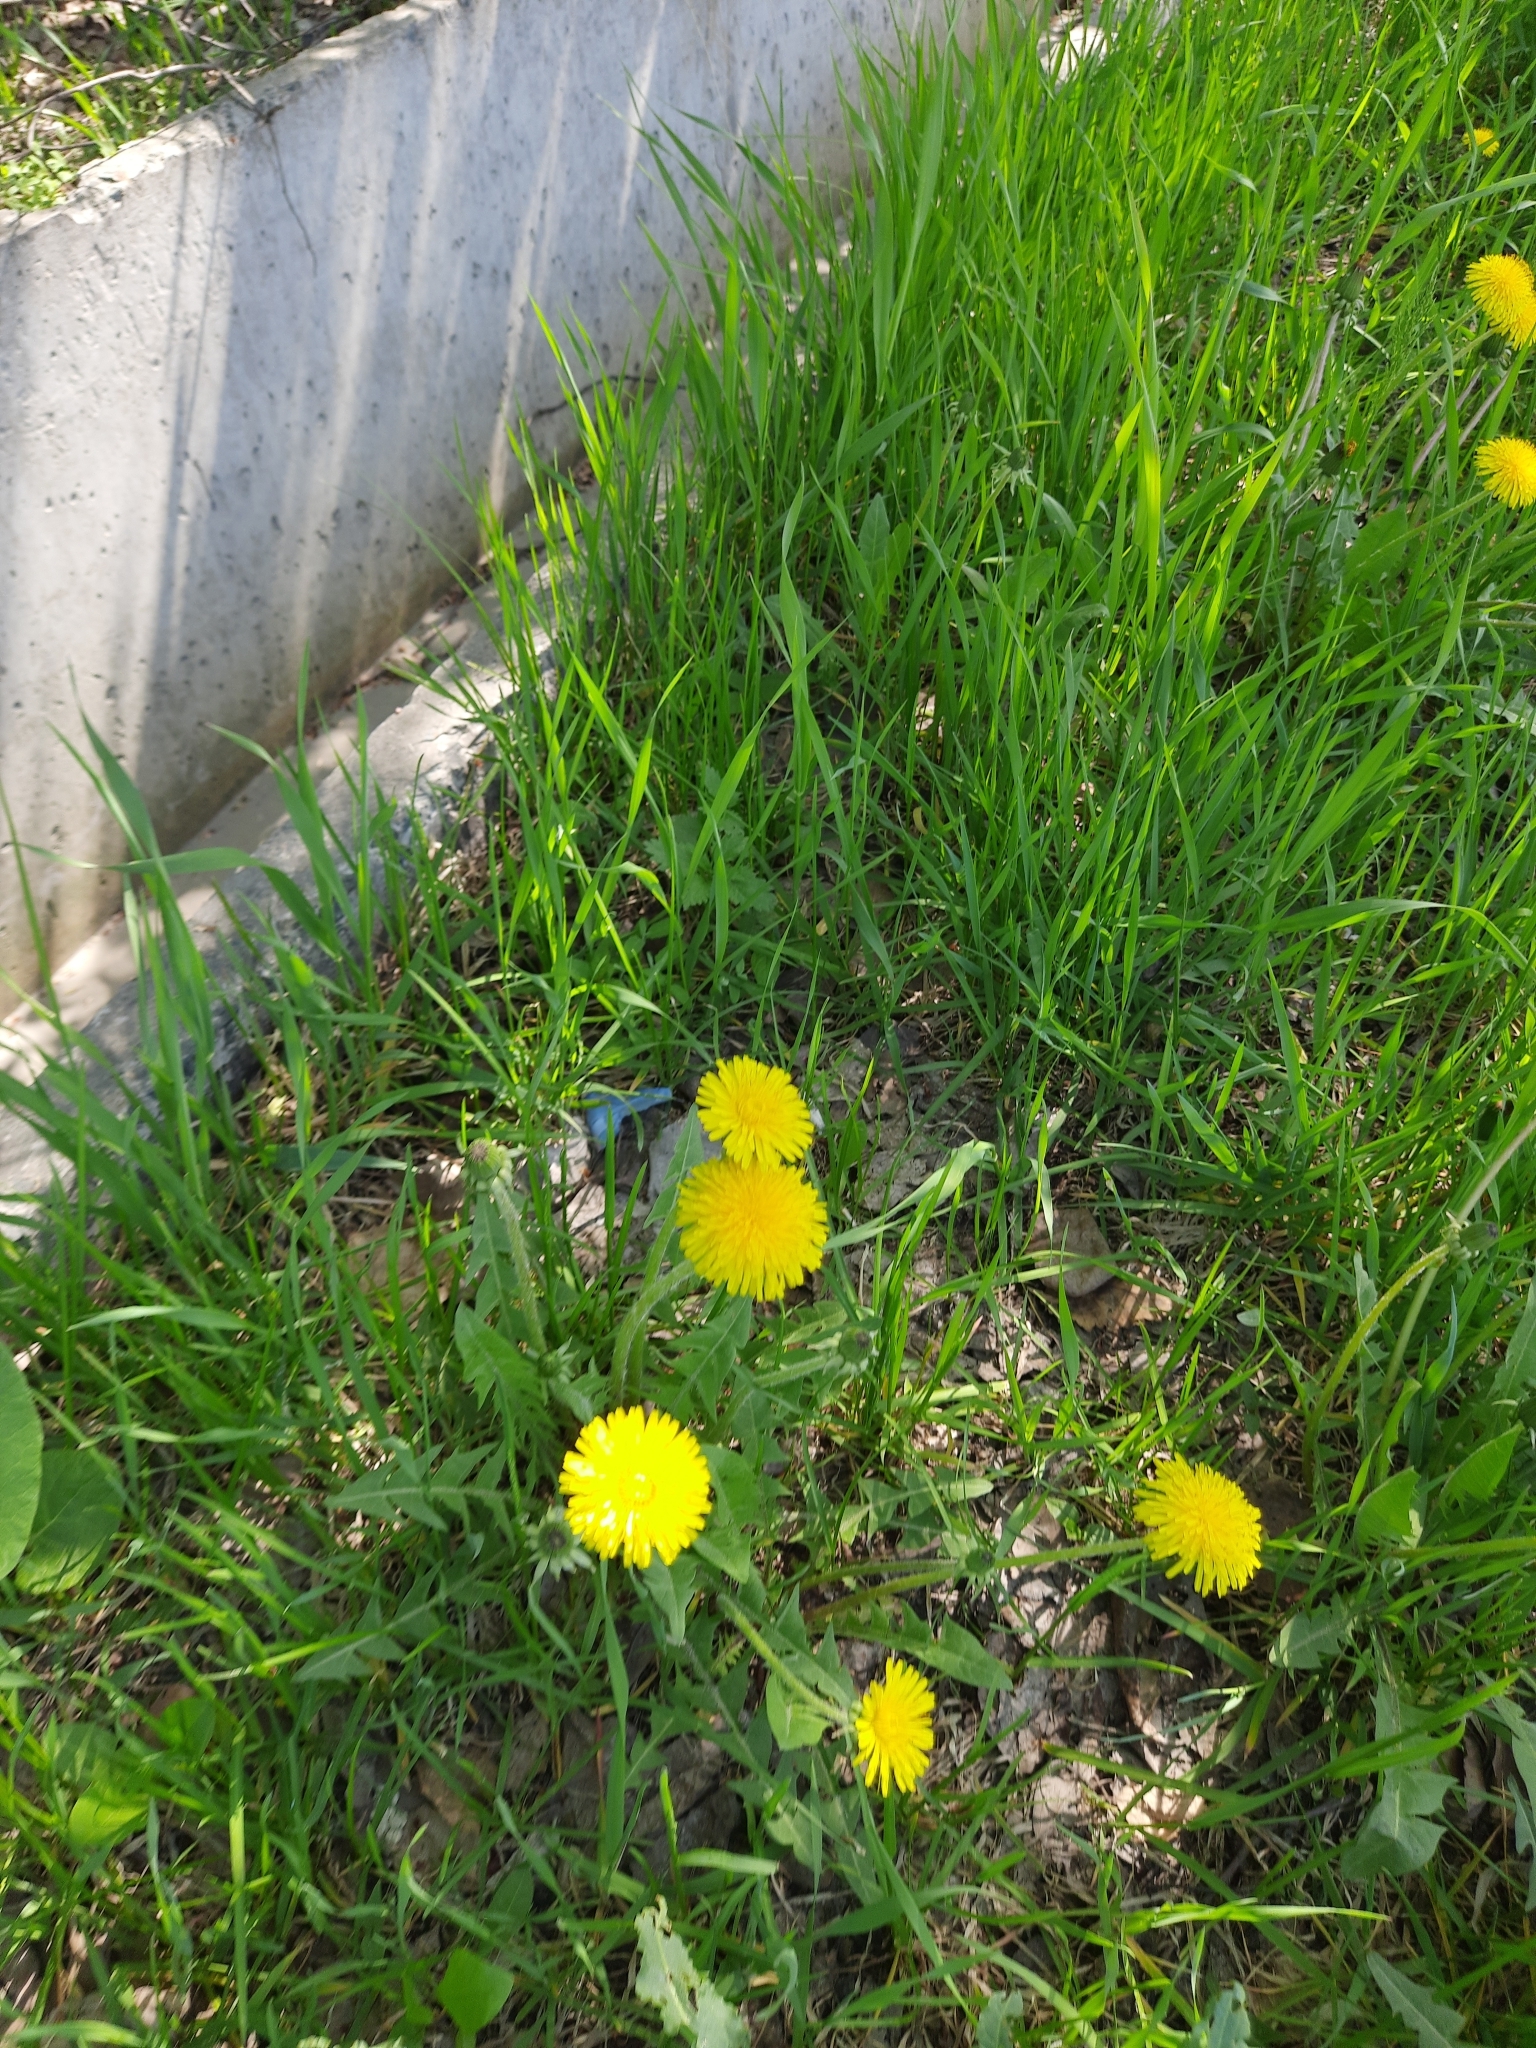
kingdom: Plantae
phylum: Tracheophyta
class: Magnoliopsida
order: Asterales
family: Asteraceae
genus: Taraxacum
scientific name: Taraxacum officinale
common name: Common dandelion
